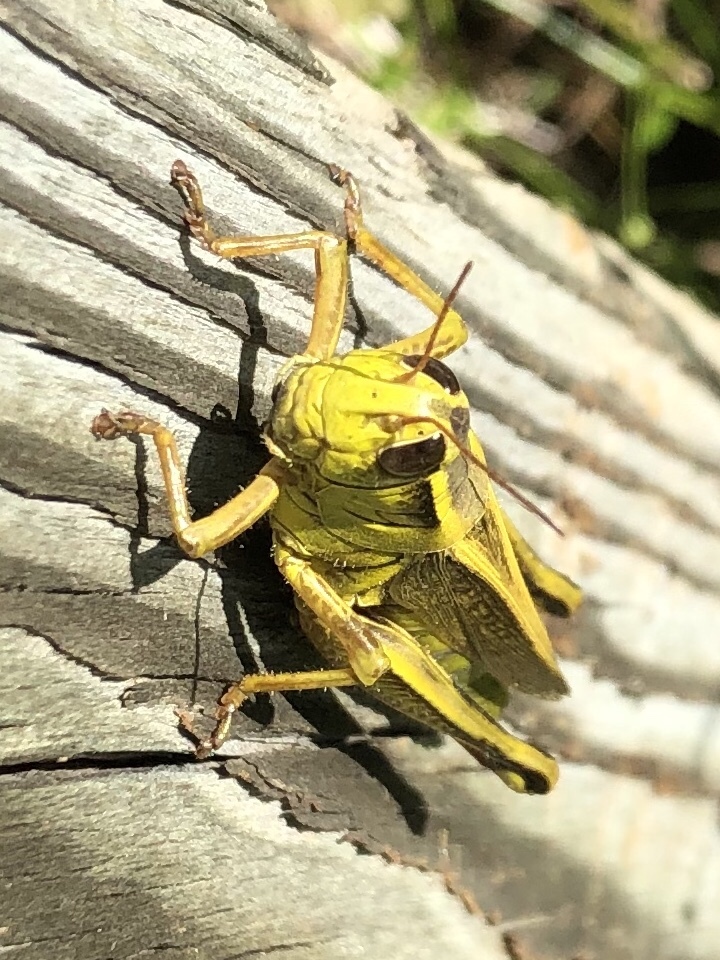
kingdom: Animalia
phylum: Arthropoda
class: Insecta
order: Orthoptera
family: Acrididae
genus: Melanoplus
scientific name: Melanoplus bivittatus
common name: Two-striped grasshopper
